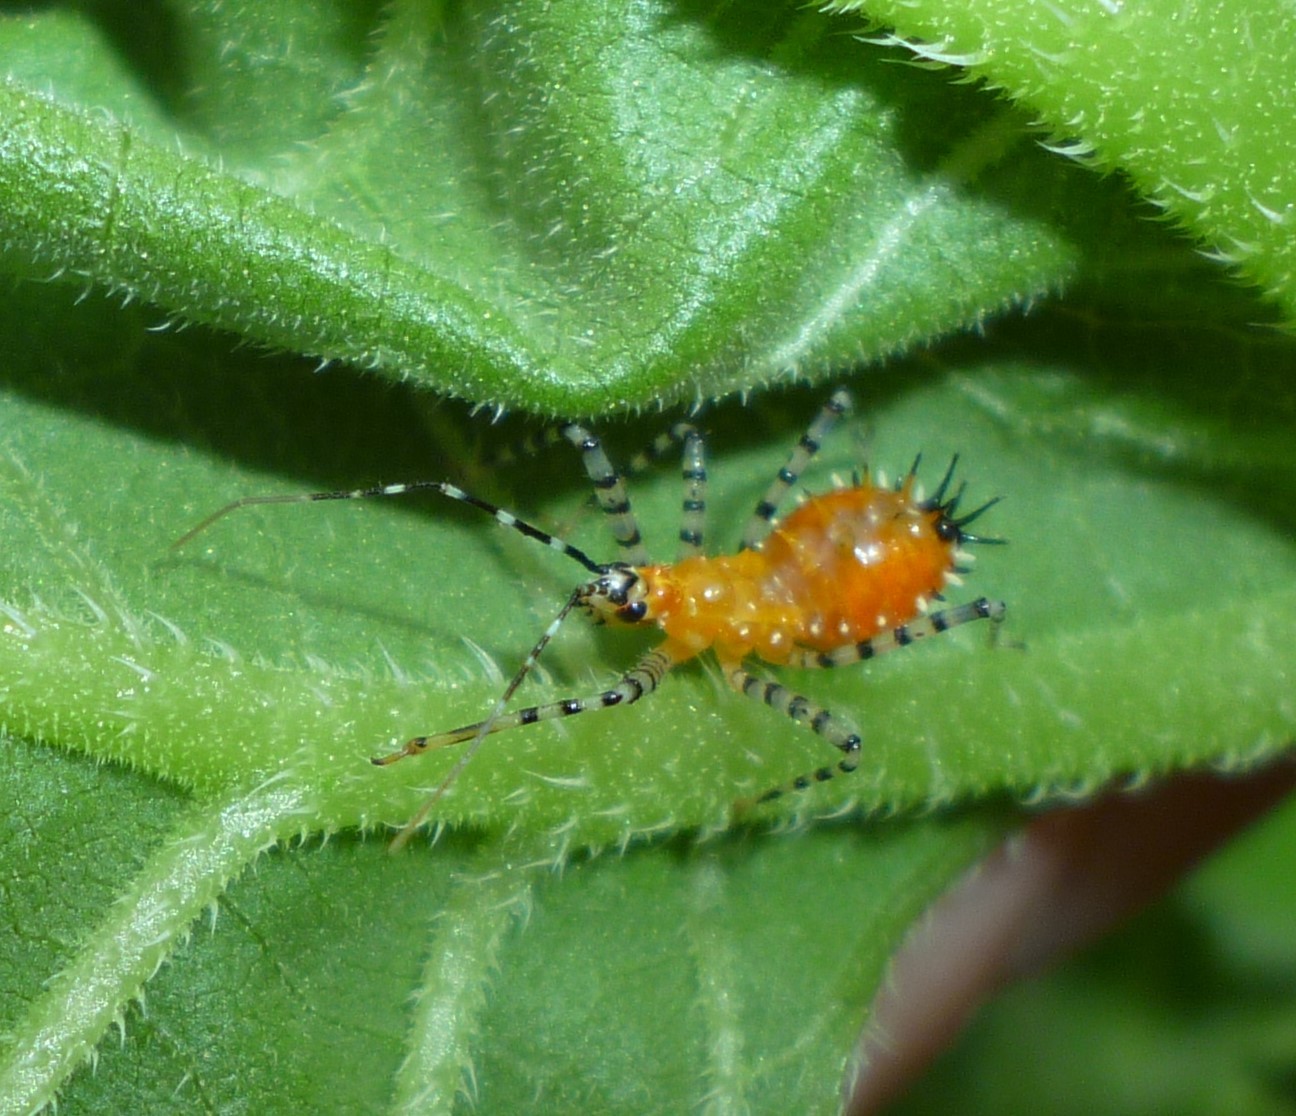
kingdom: Animalia
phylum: Arthropoda
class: Insecta
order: Hemiptera
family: Reduviidae
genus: Pselliopus
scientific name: Pselliopus cinctus
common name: Ringed assassin bug
